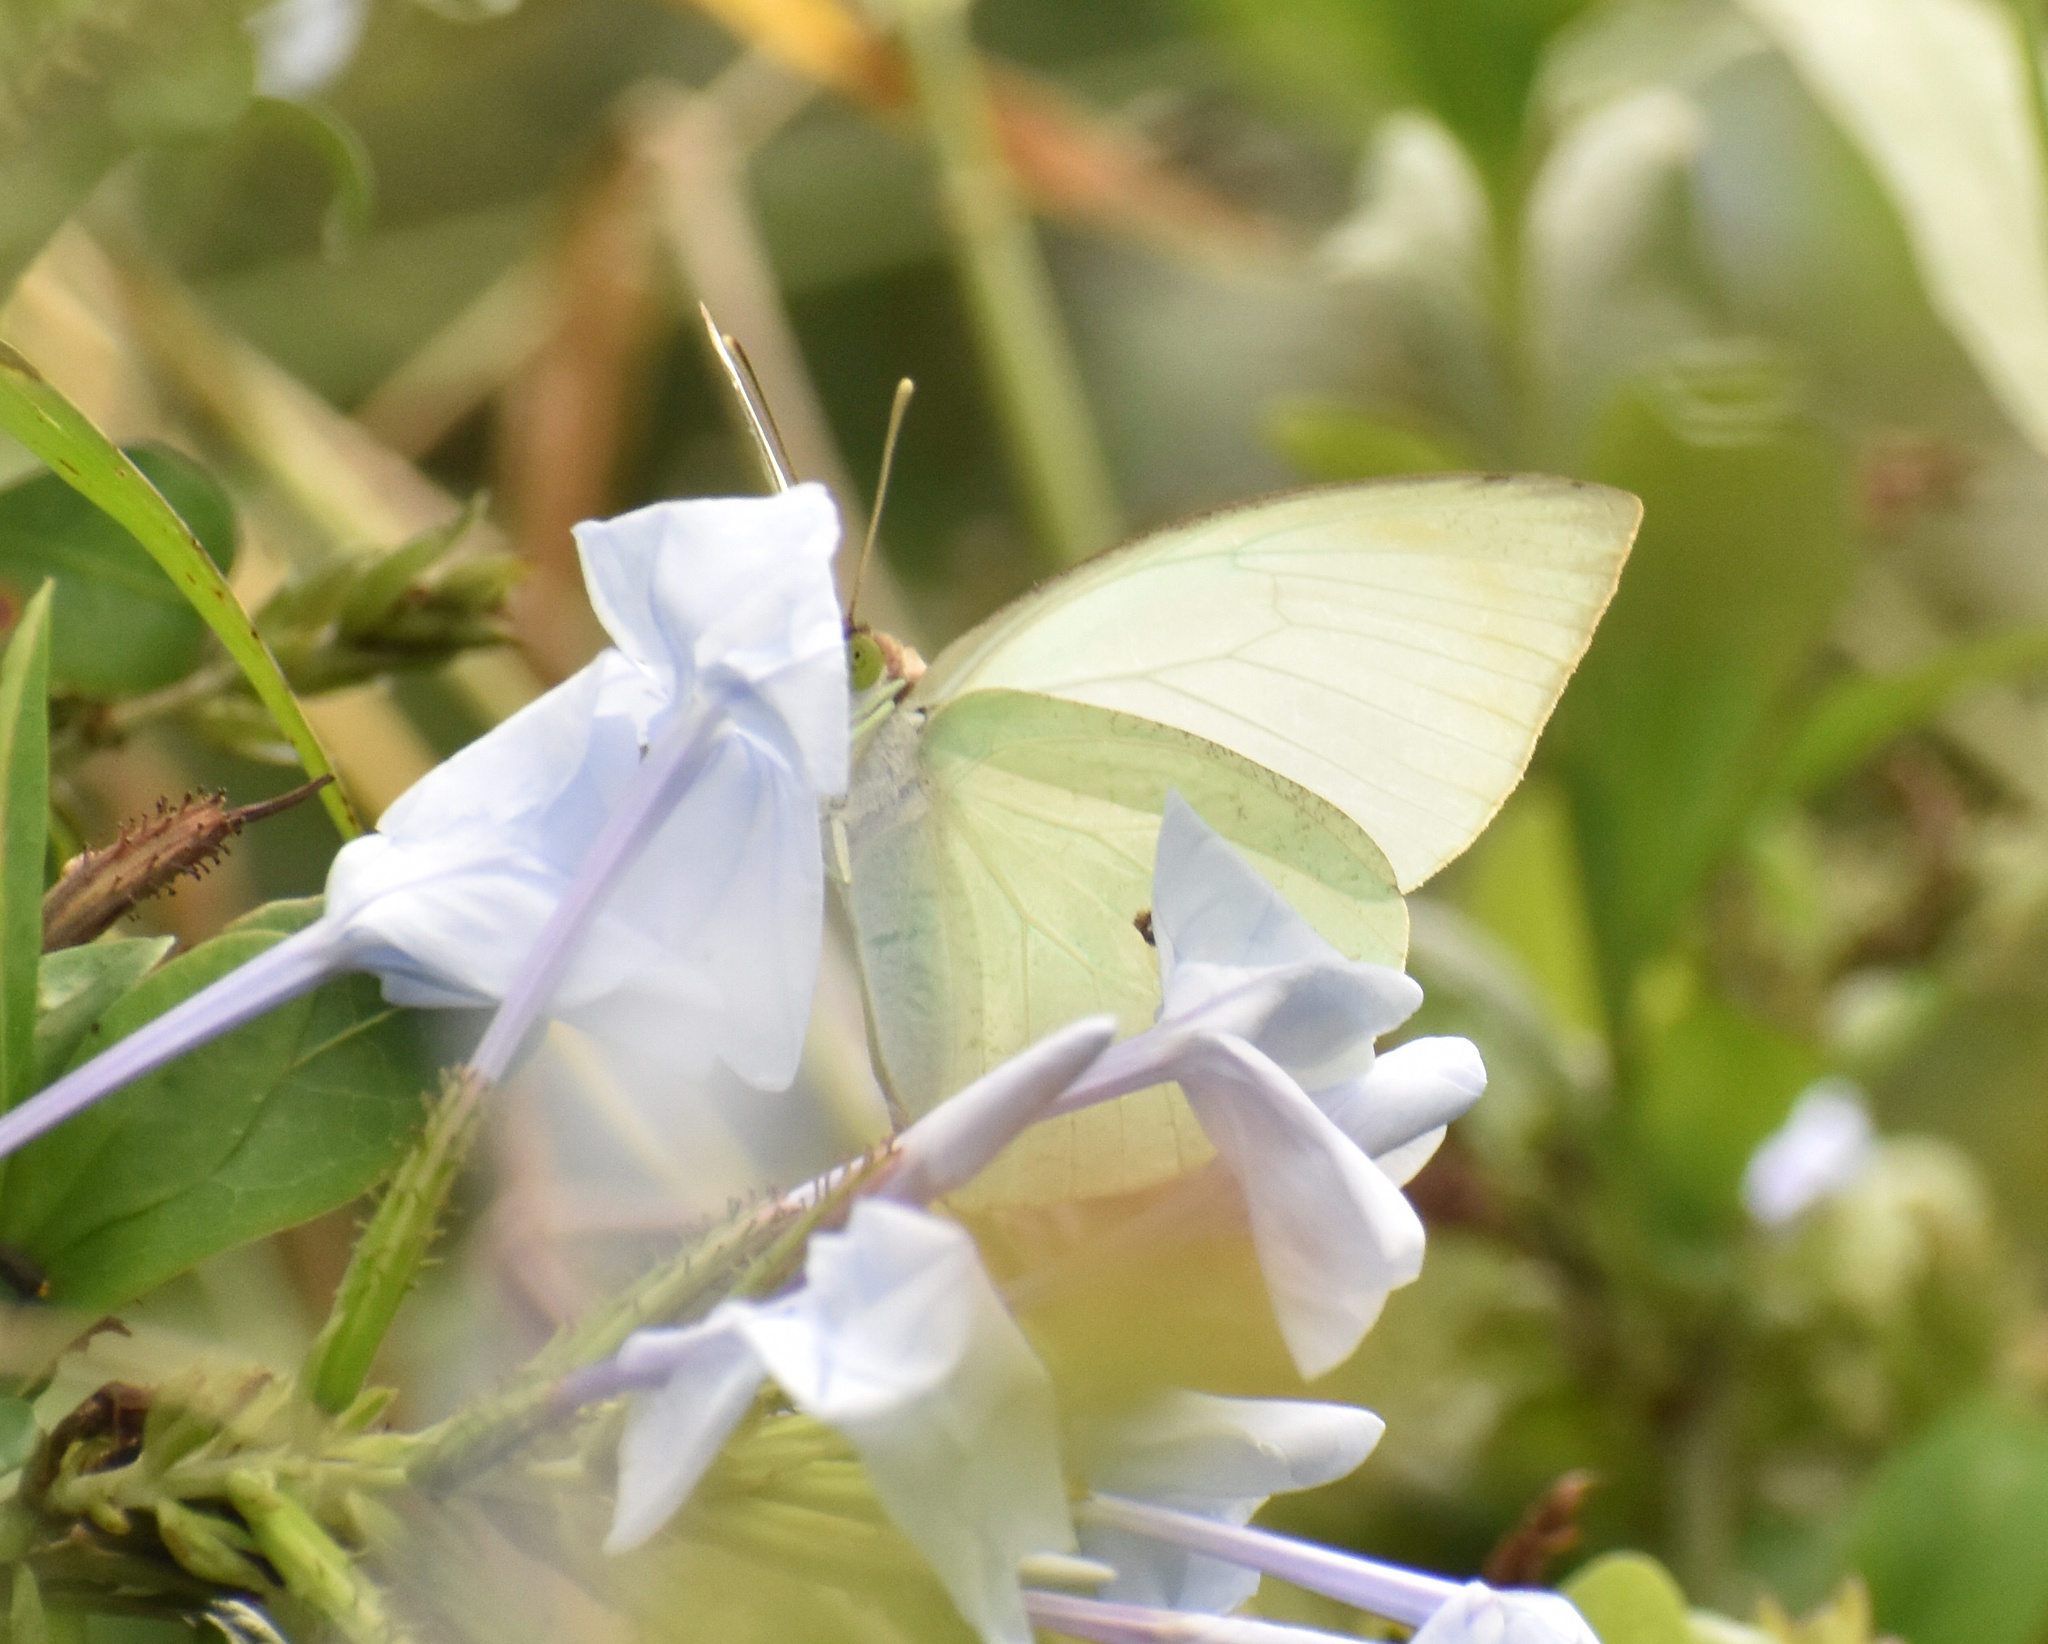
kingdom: Animalia
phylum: Arthropoda
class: Insecta
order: Lepidoptera
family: Pieridae
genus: Nepheronia
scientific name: Nepheronia buquetii
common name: Plain vagrant
